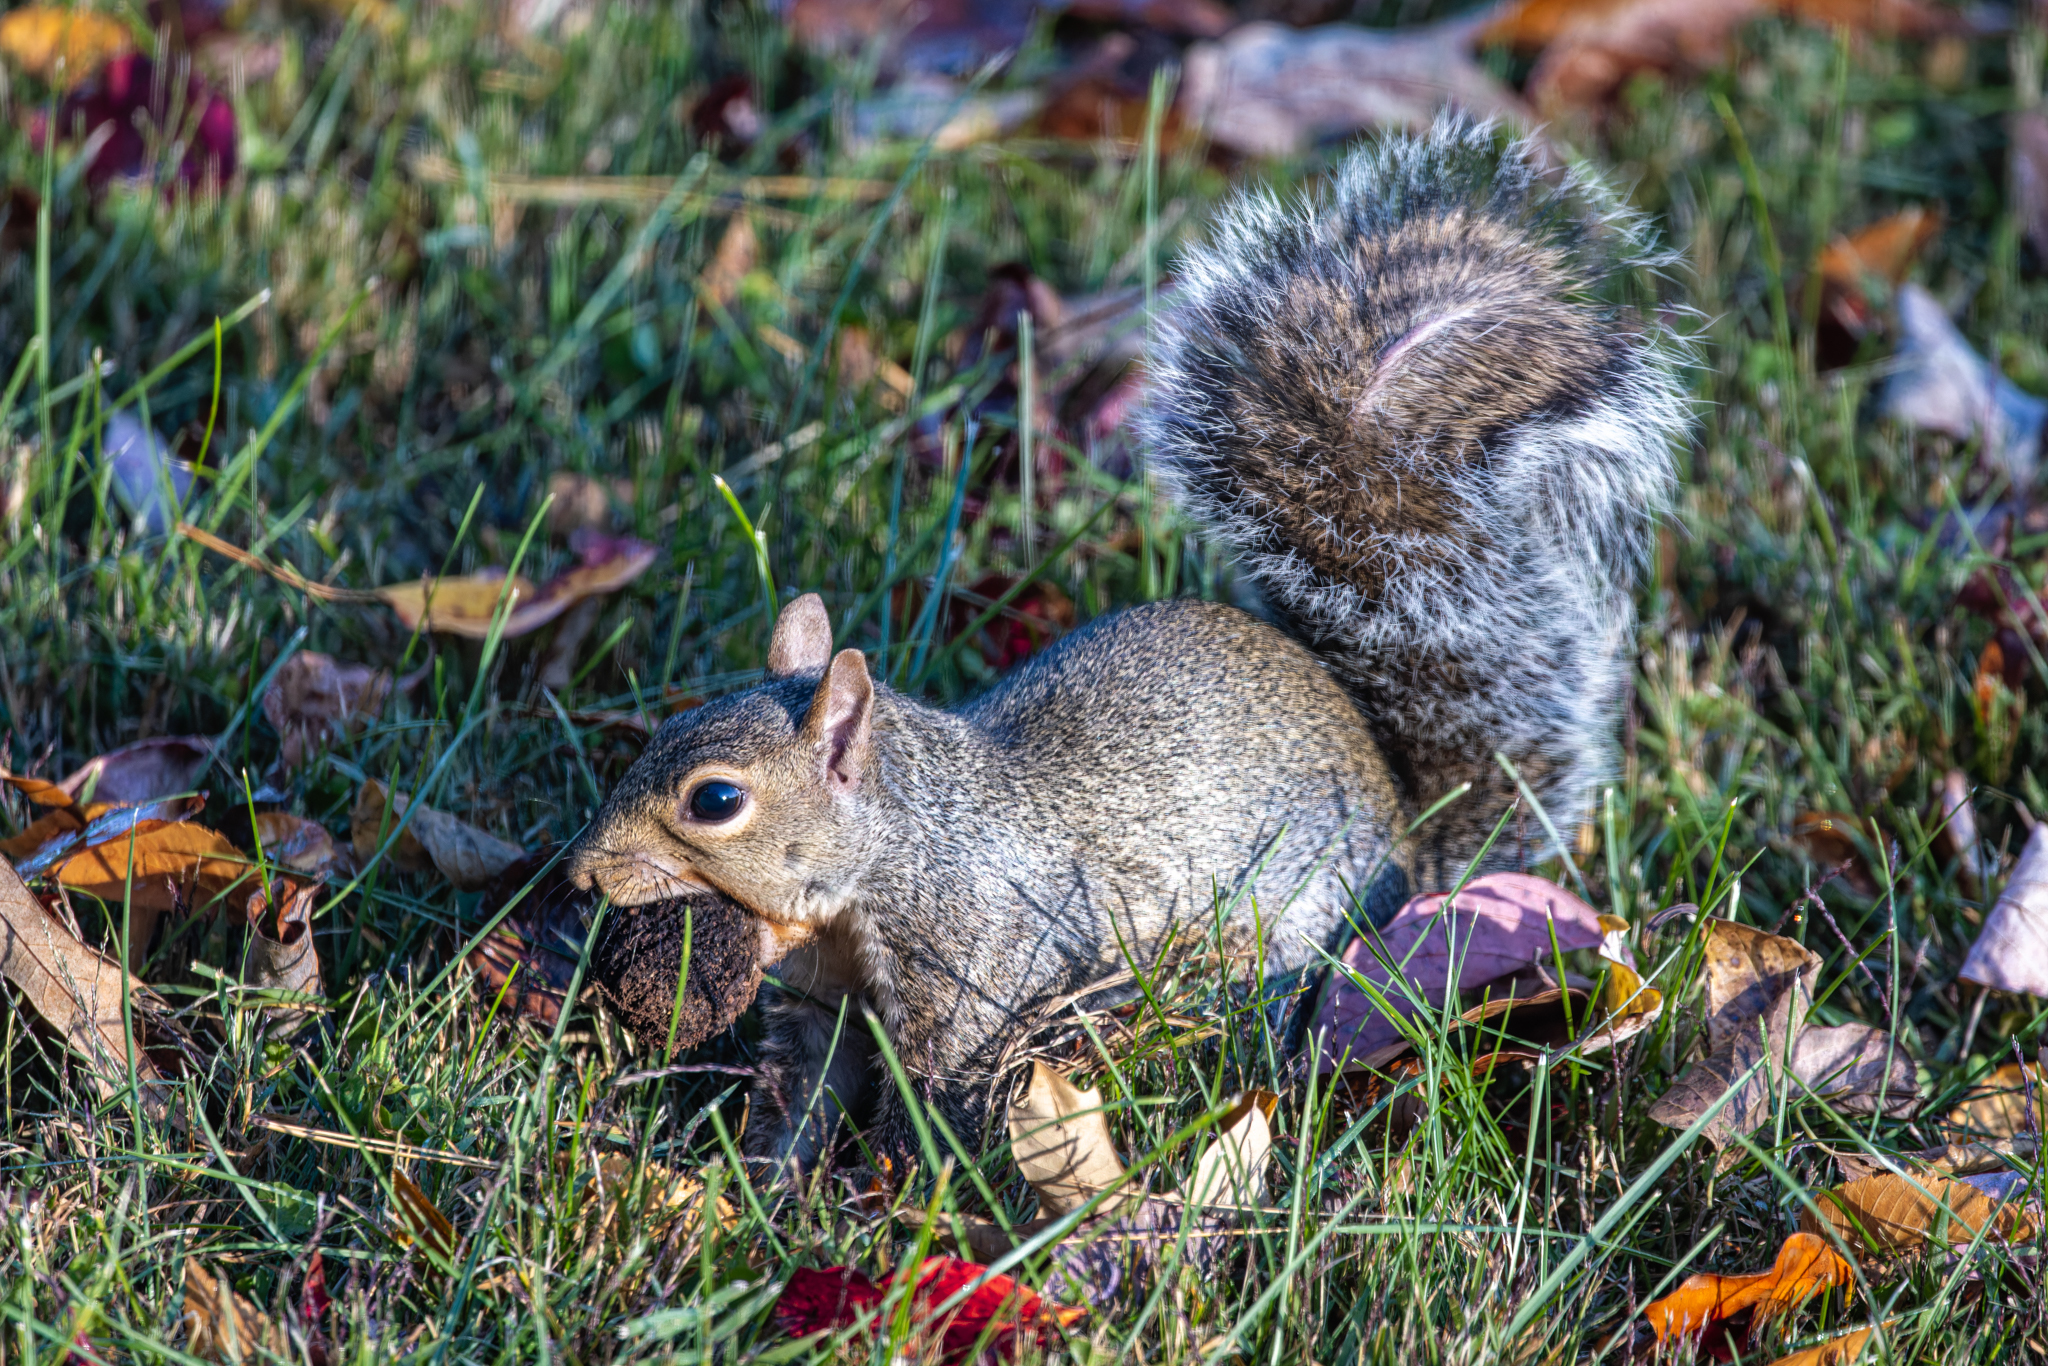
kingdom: Animalia
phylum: Chordata
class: Mammalia
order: Rodentia
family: Sciuridae
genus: Sciurus
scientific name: Sciurus carolinensis
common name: Eastern gray squirrel
